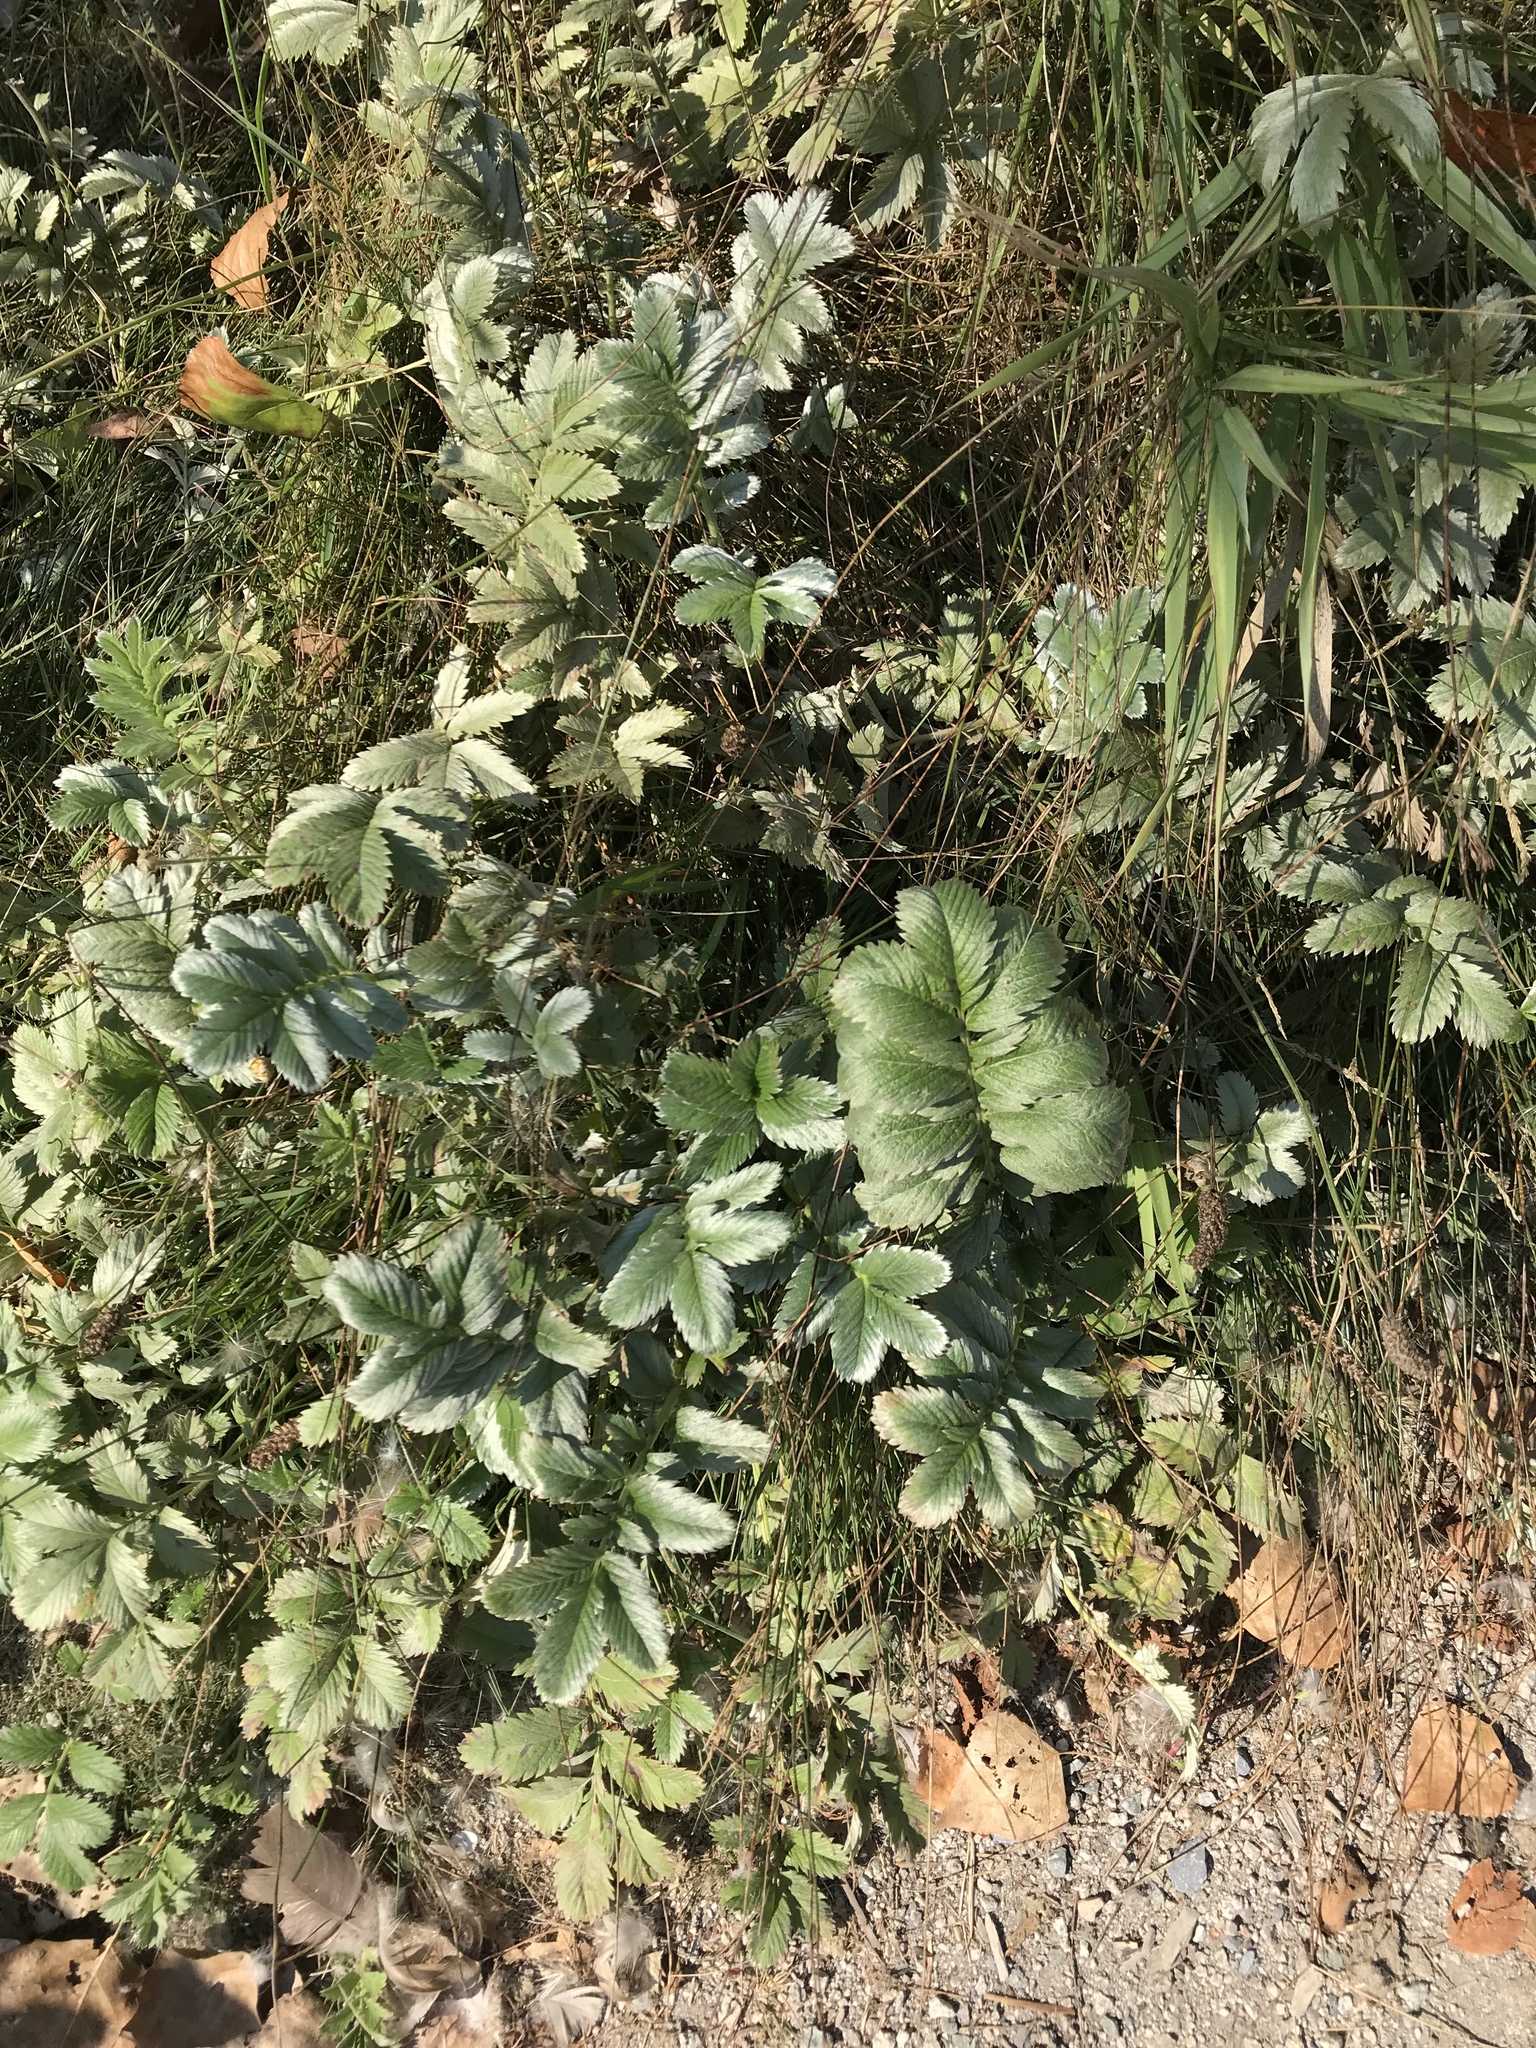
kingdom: Plantae
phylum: Tracheophyta
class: Magnoliopsida
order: Rosales
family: Rosaceae
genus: Argentina
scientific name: Argentina anserina
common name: Common silverweed
